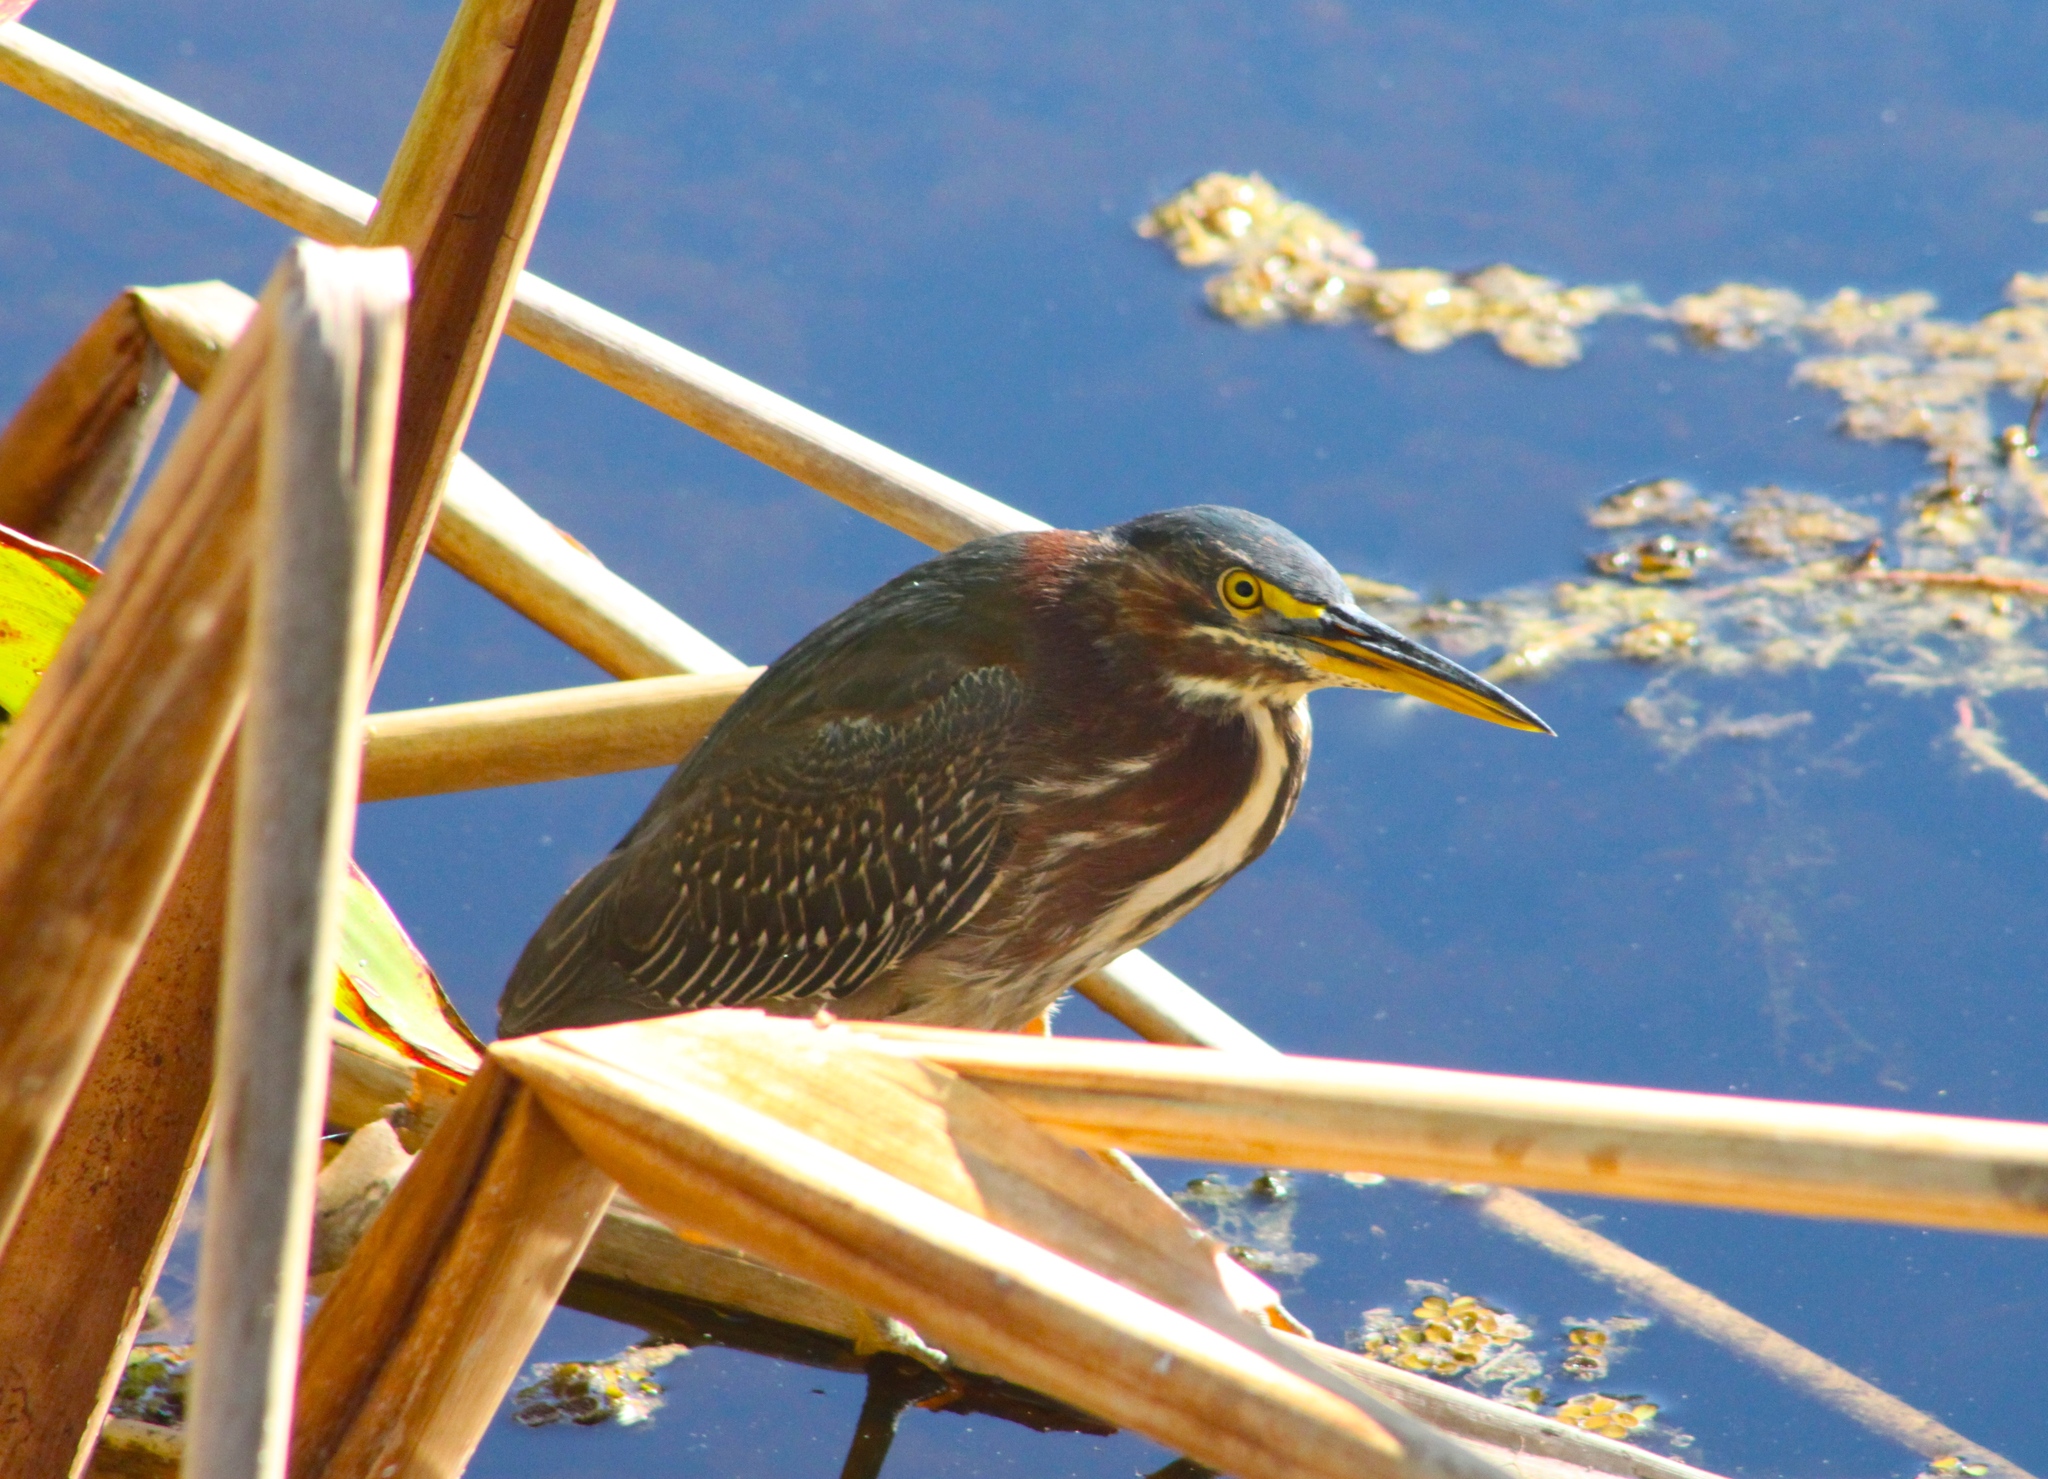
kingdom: Animalia
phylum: Chordata
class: Aves
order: Pelecaniformes
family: Ardeidae
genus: Butorides
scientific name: Butorides virescens
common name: Green heron
